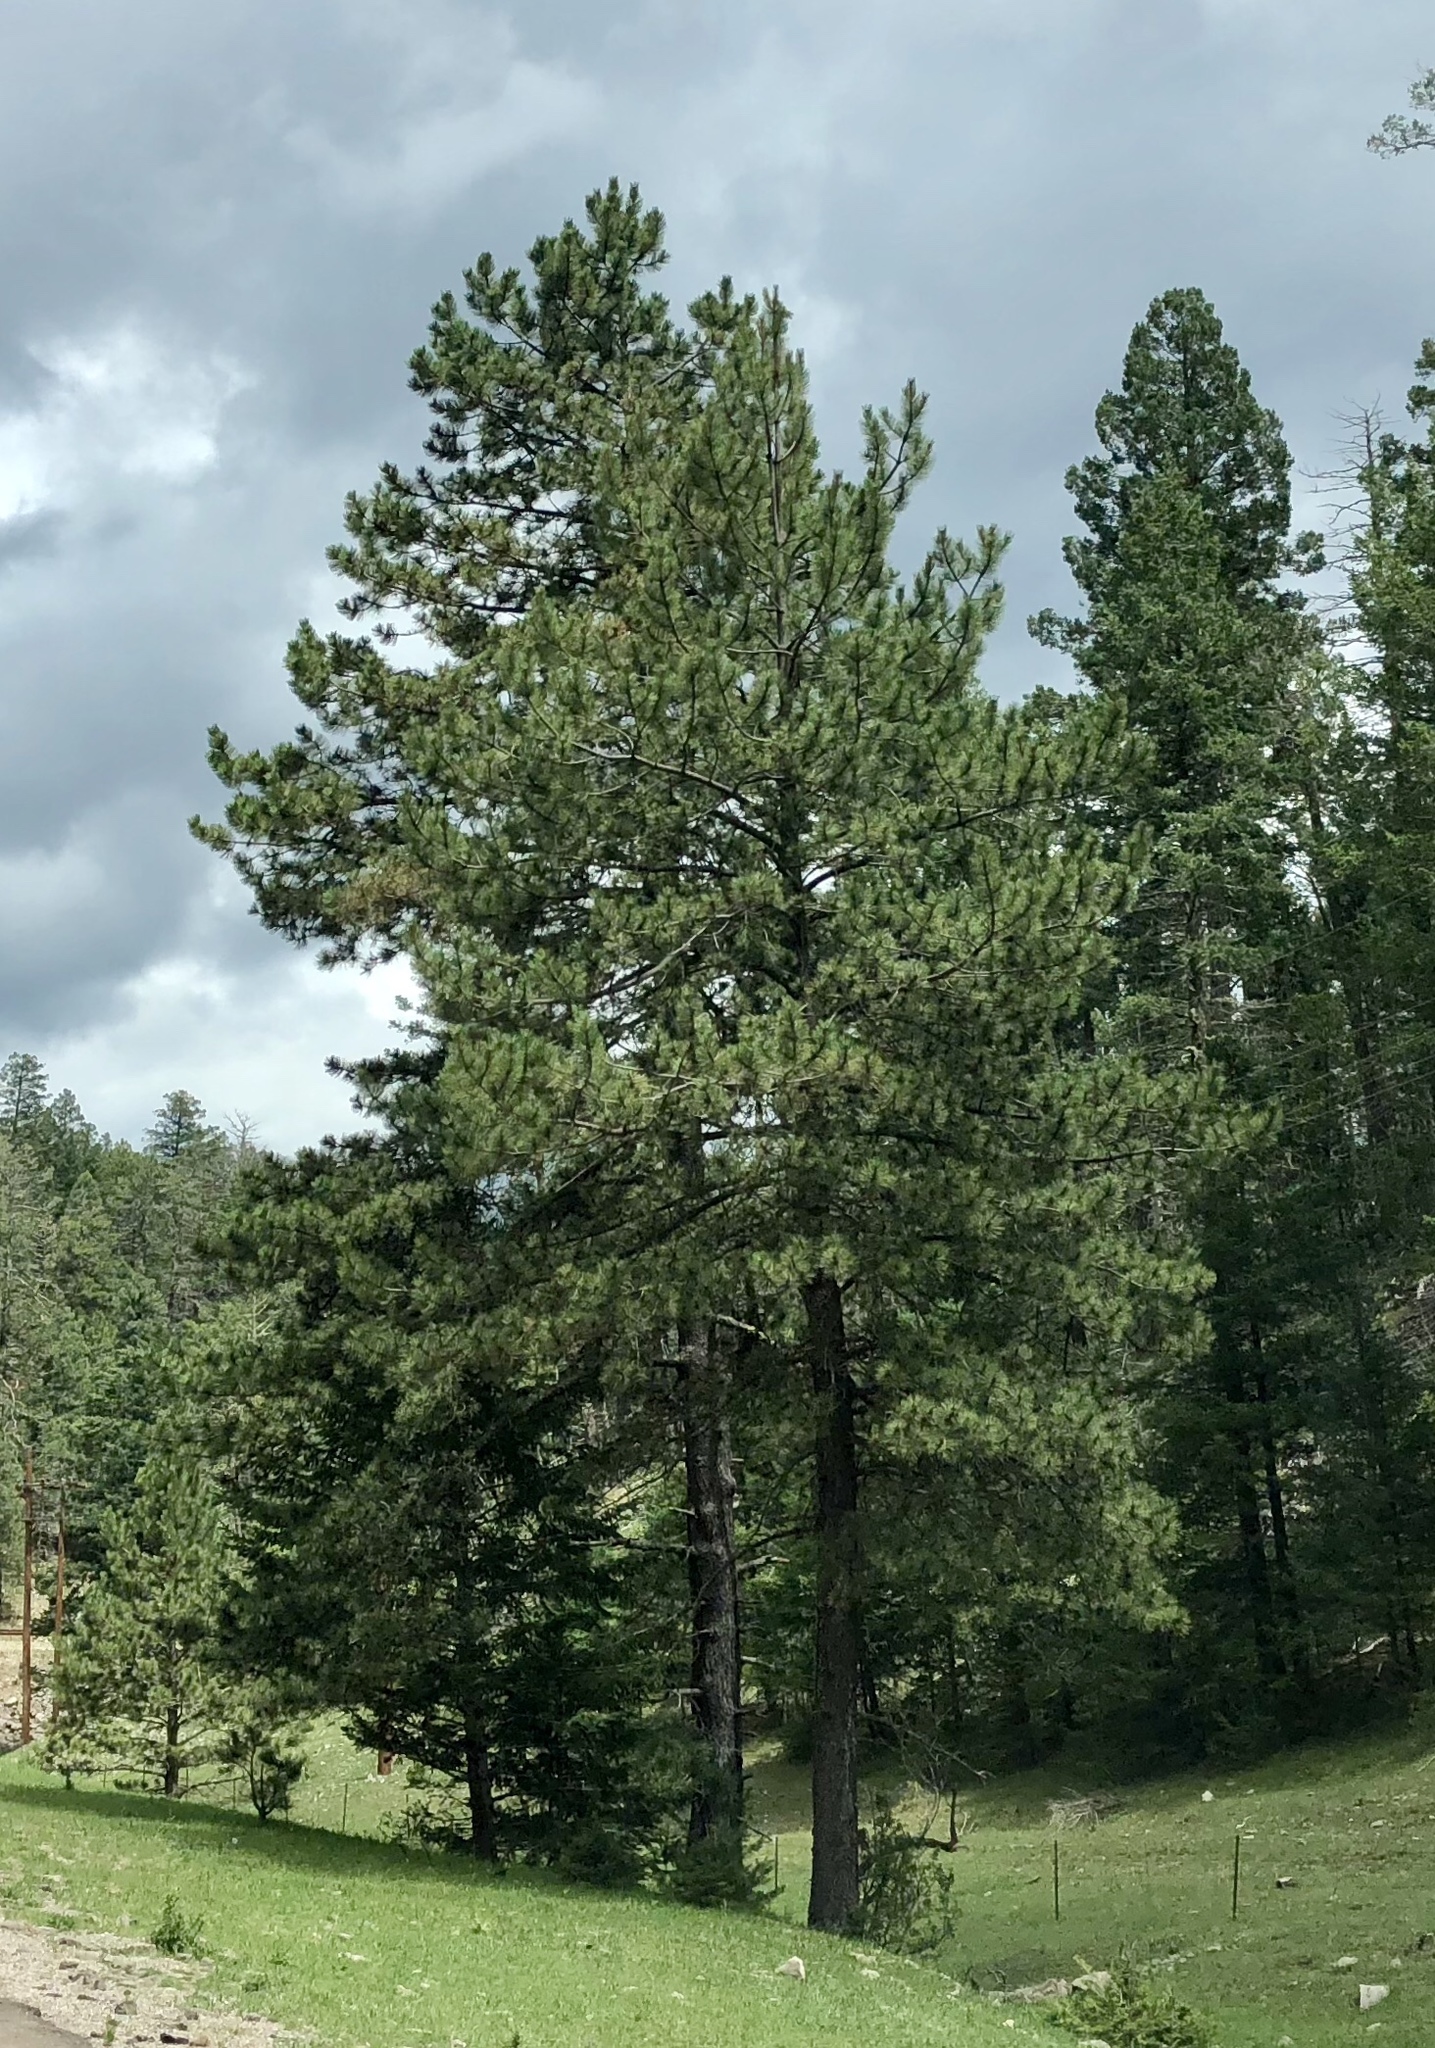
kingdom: Plantae
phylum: Tracheophyta
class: Pinopsida
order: Pinales
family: Pinaceae
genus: Pinus
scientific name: Pinus ponderosa
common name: Western yellow-pine
